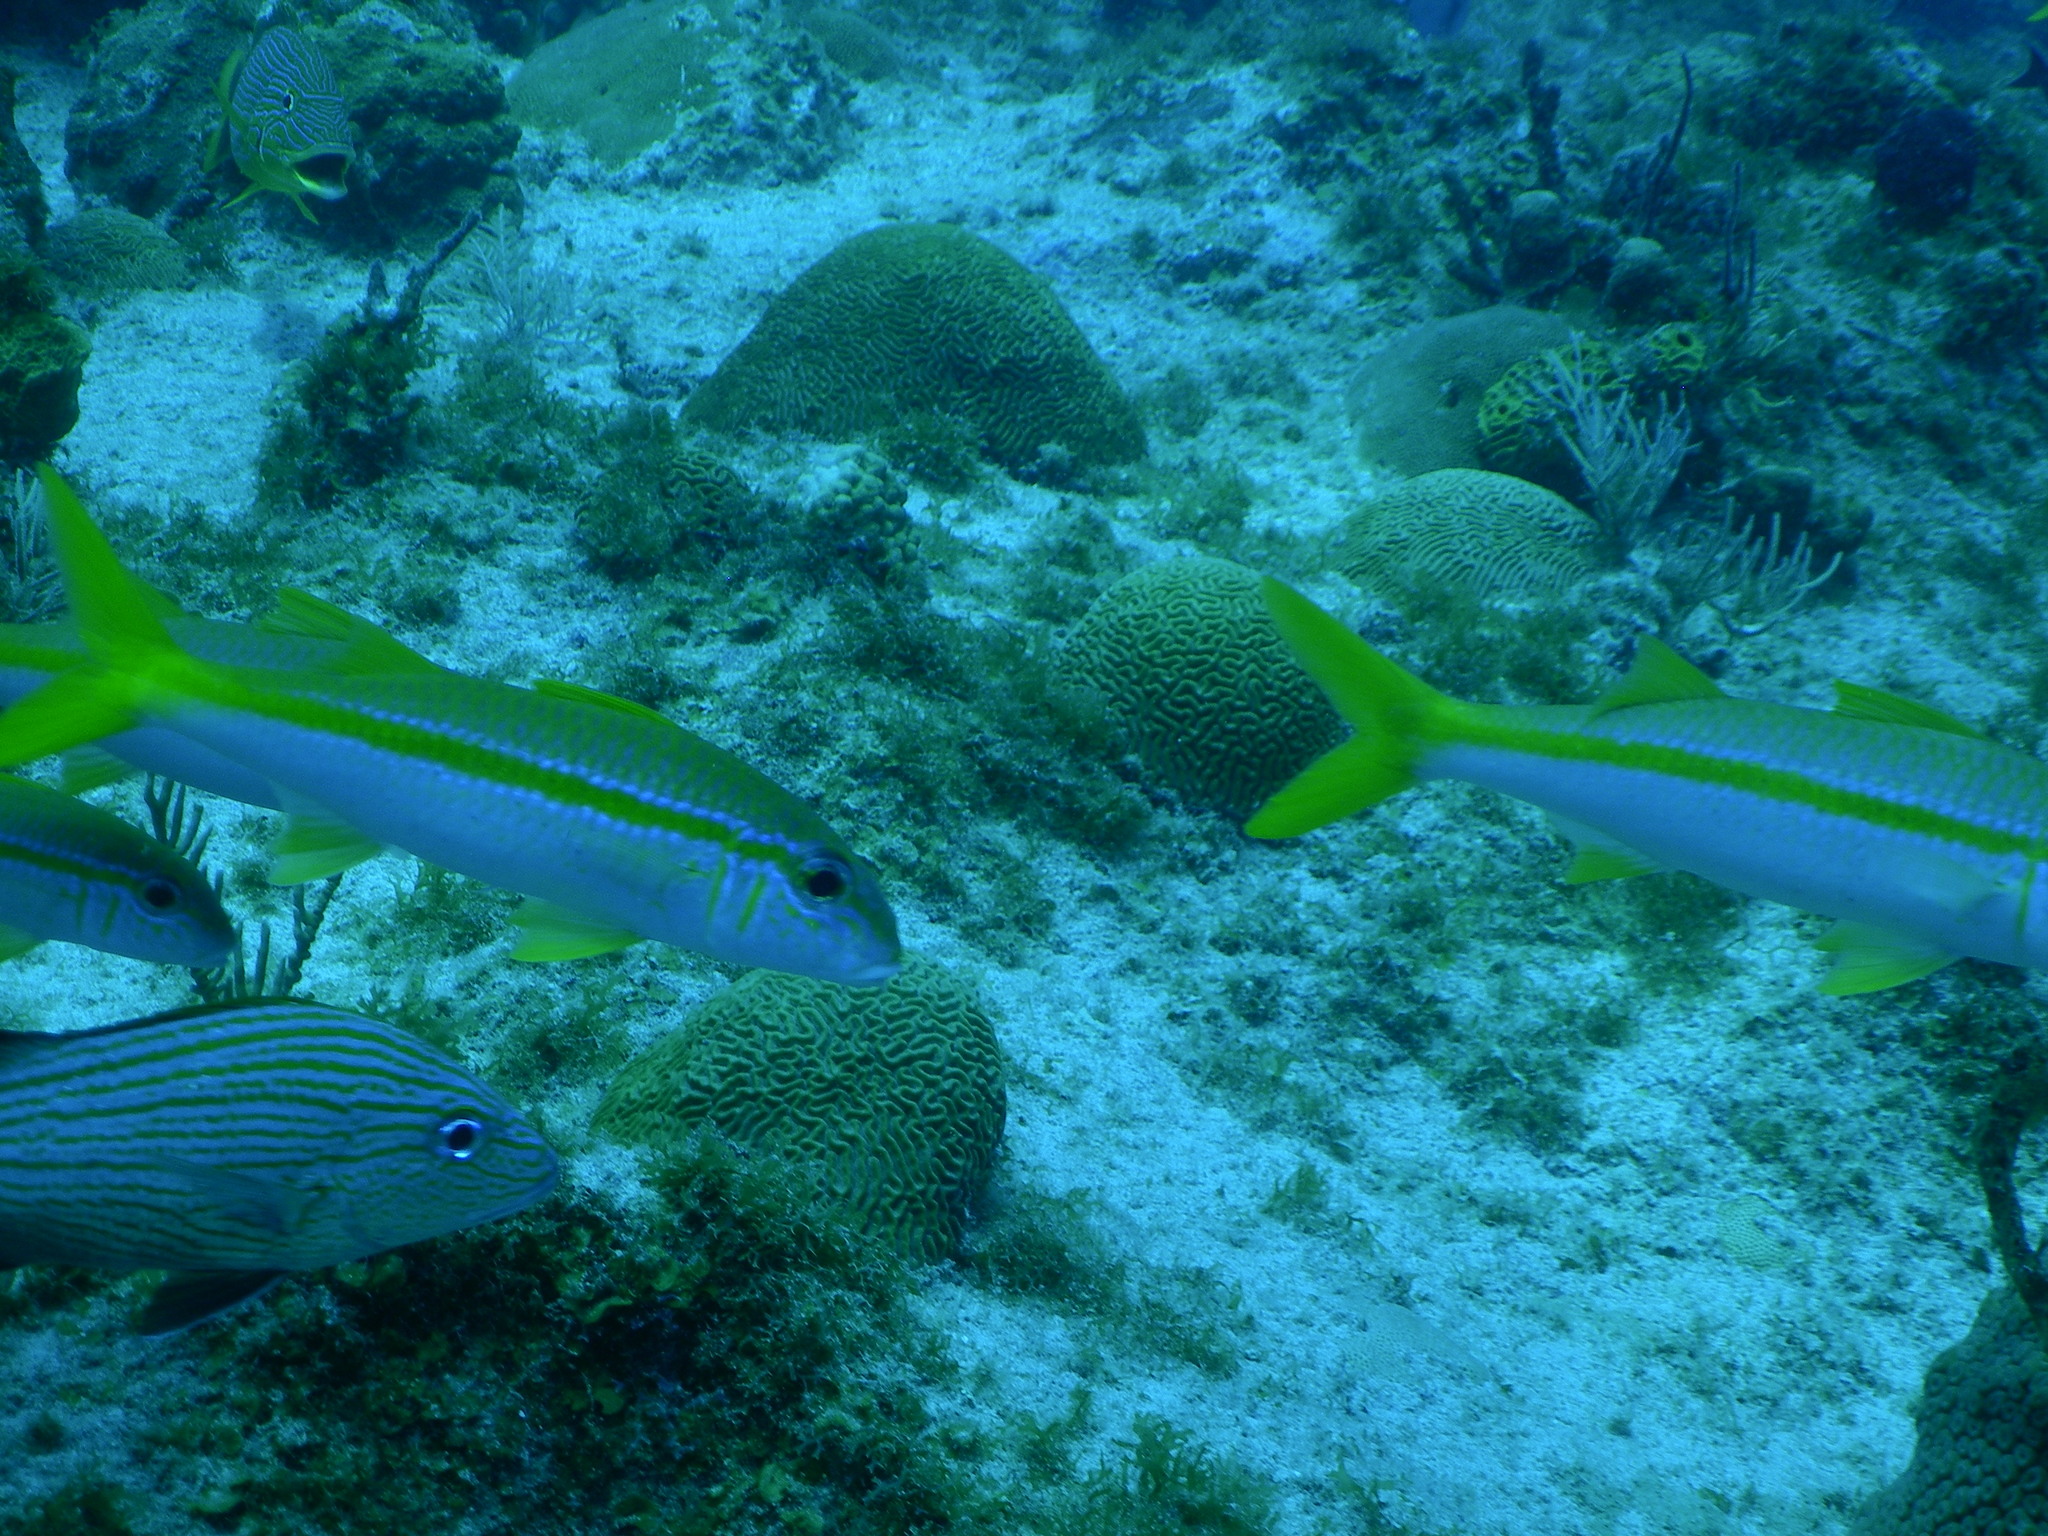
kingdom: Animalia
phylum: Chordata
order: Perciformes
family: Mullidae
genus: Mulloidichthys
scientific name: Mulloidichthys martinicus
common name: Yellow goatfish
